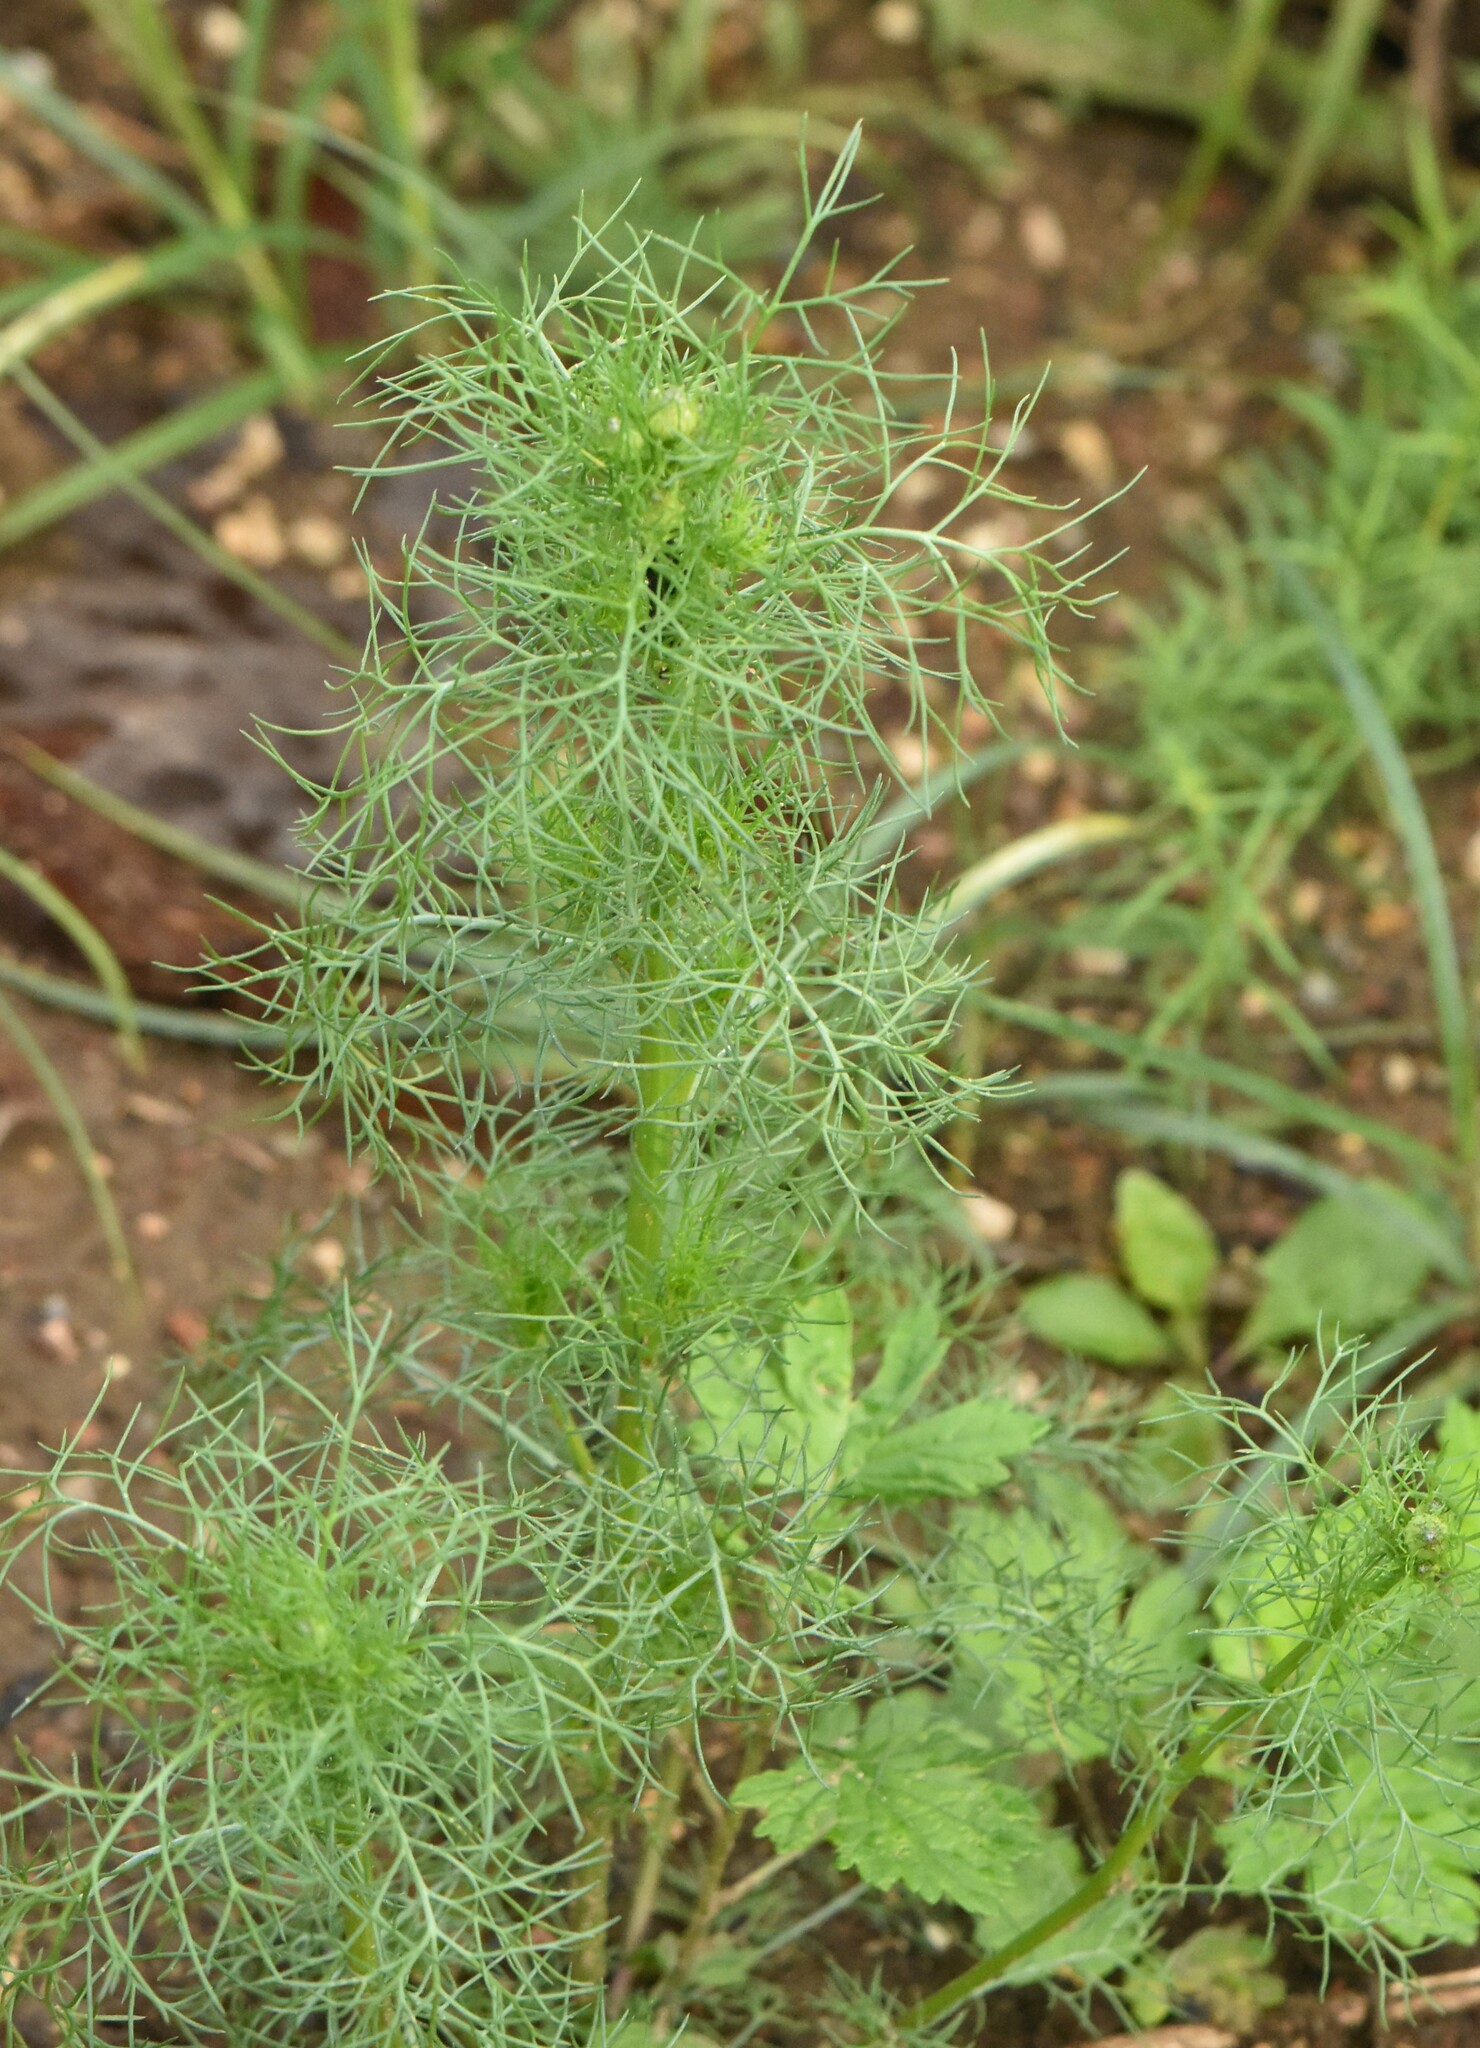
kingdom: Plantae
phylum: Tracheophyta
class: Magnoliopsida
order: Asterales
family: Asteraceae
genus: Tripleurospermum
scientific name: Tripleurospermum inodorum
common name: Scentless mayweed
